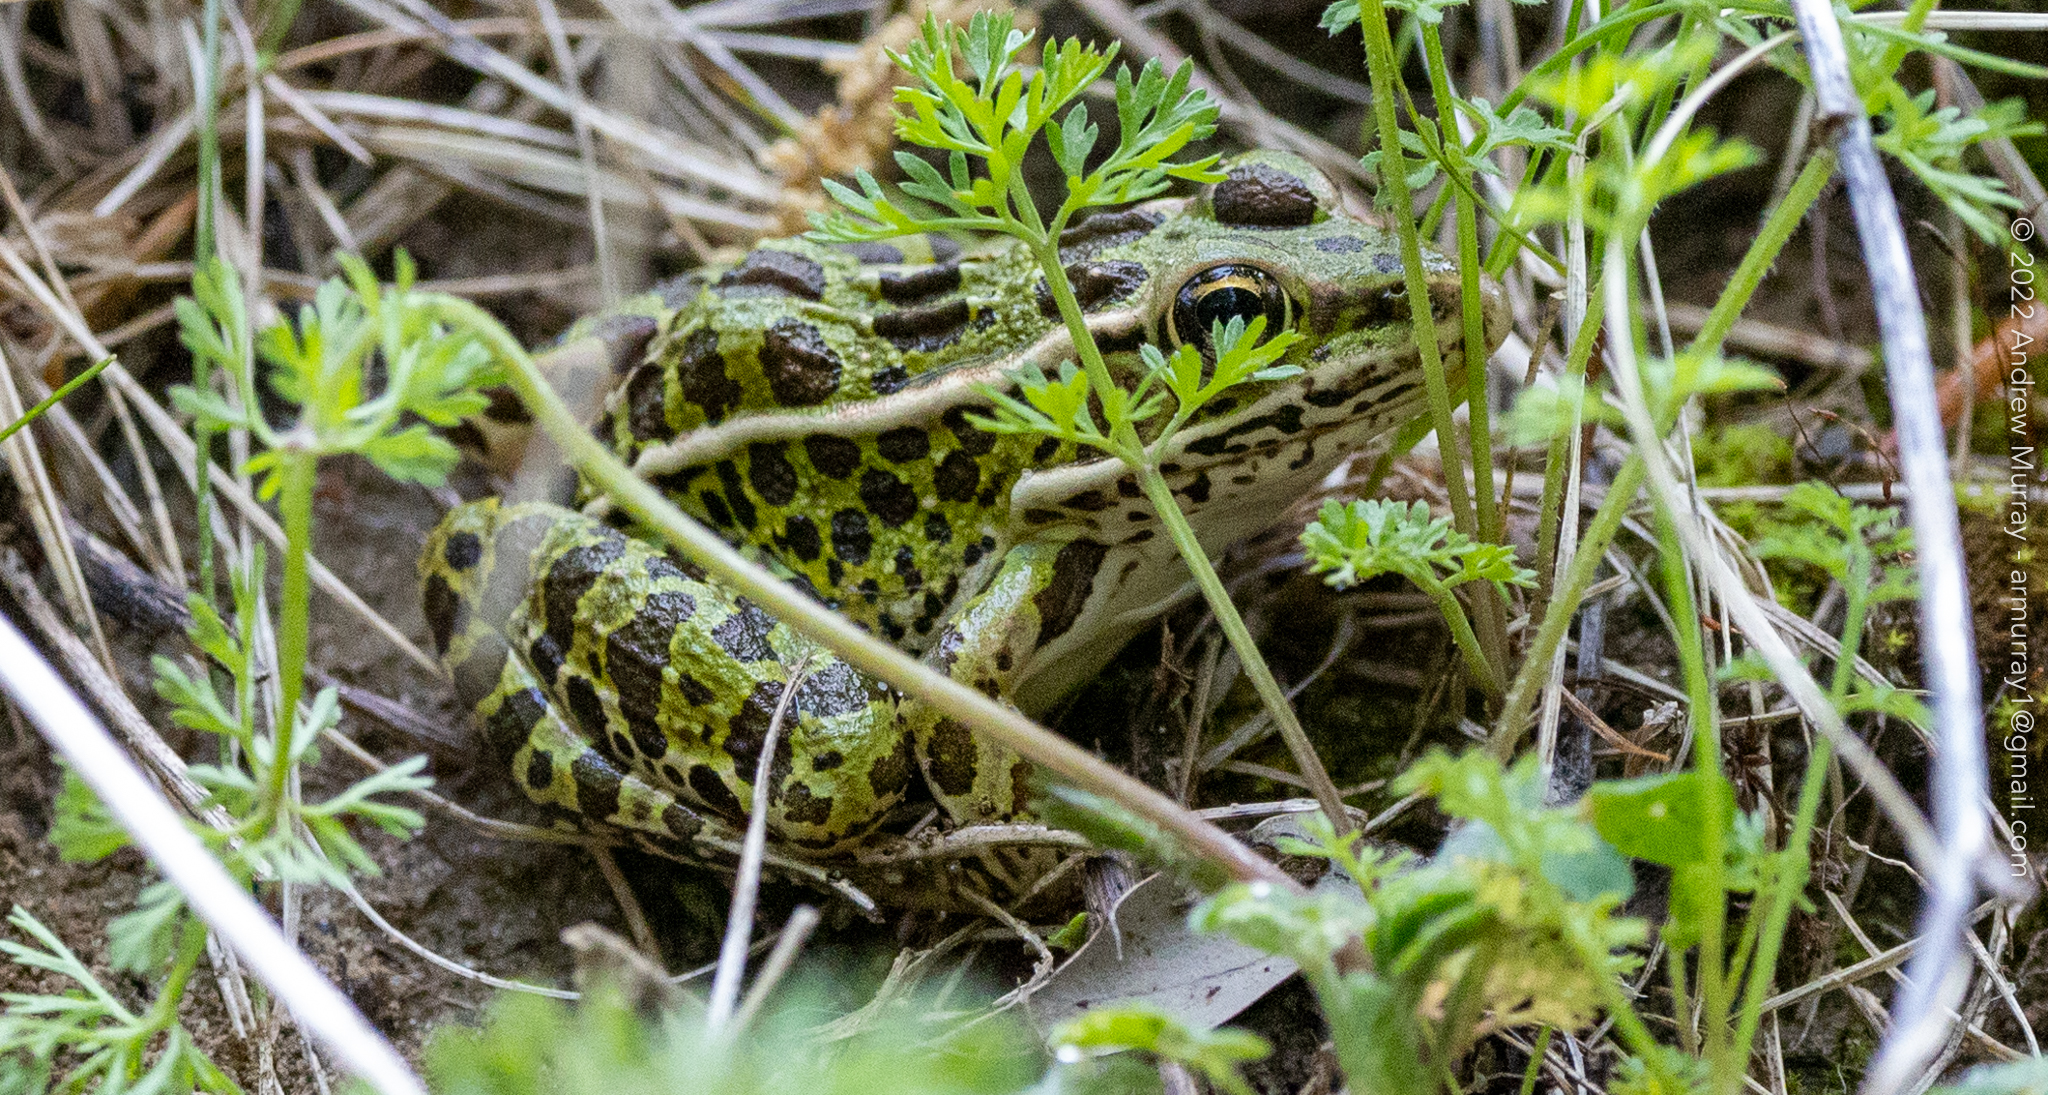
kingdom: Animalia
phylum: Chordata
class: Amphibia
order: Anura
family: Ranidae
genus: Lithobates
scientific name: Lithobates pipiens
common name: Northern leopard frog
